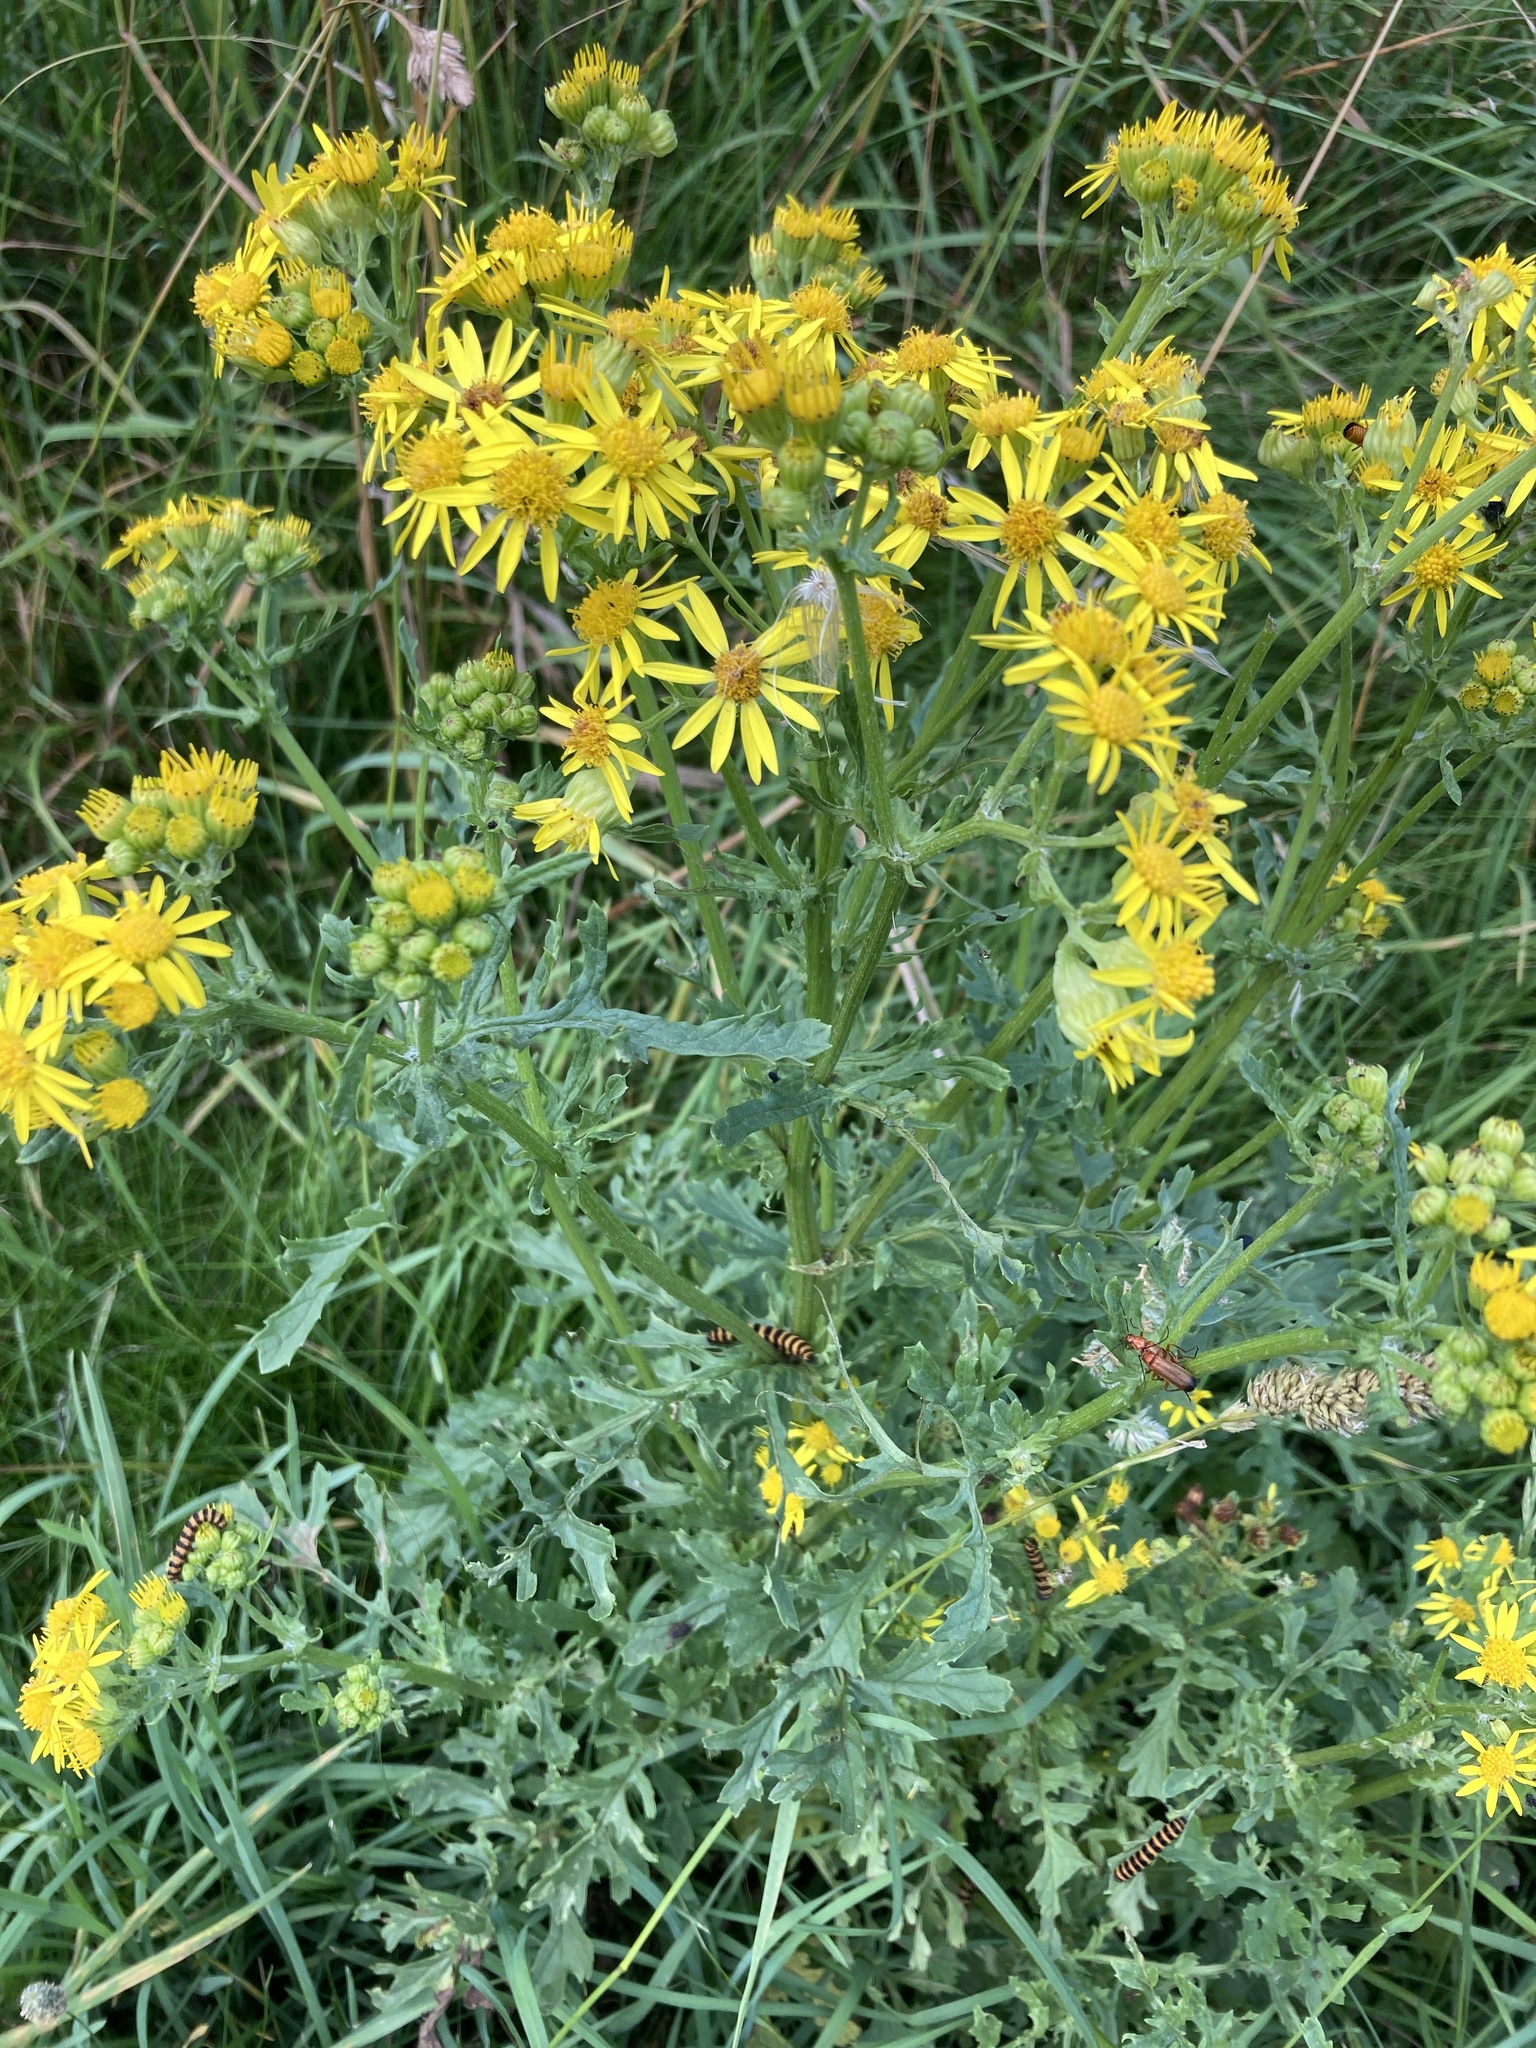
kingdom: Plantae
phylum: Tracheophyta
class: Magnoliopsida
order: Asterales
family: Asteraceae
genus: Jacobaea
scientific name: Jacobaea vulgaris
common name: Stinking willie
